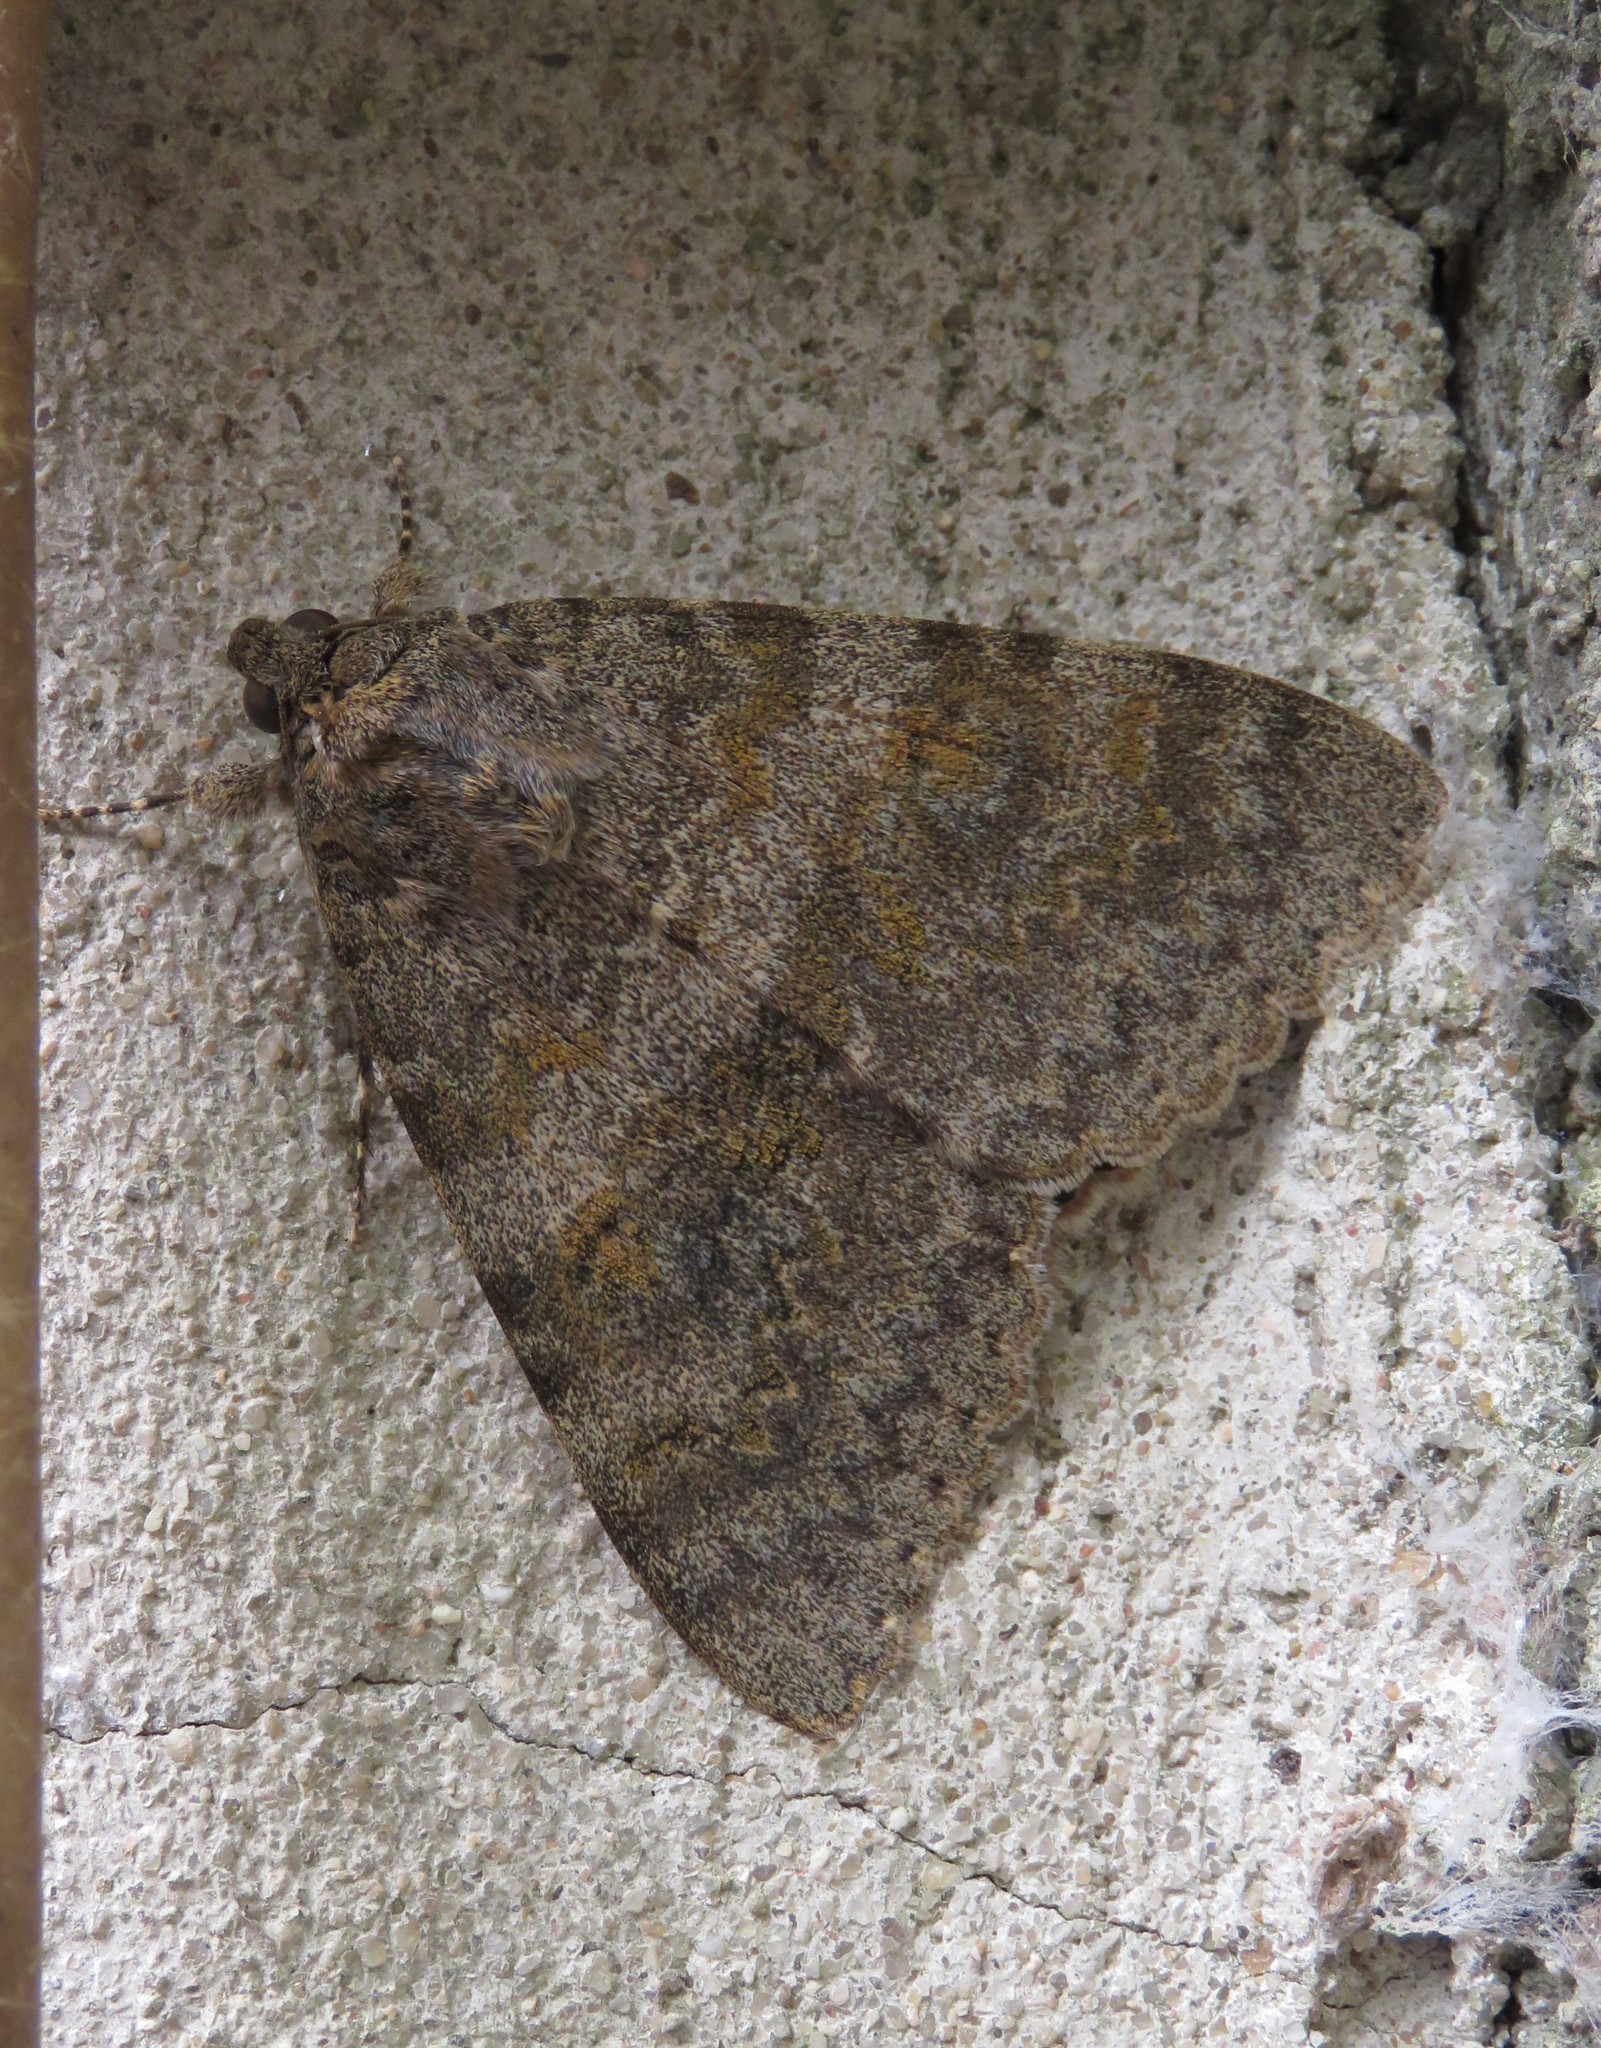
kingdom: Animalia
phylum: Arthropoda
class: Insecta
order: Lepidoptera
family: Erebidae
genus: Catocala
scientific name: Catocala elocata
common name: French red underwing
